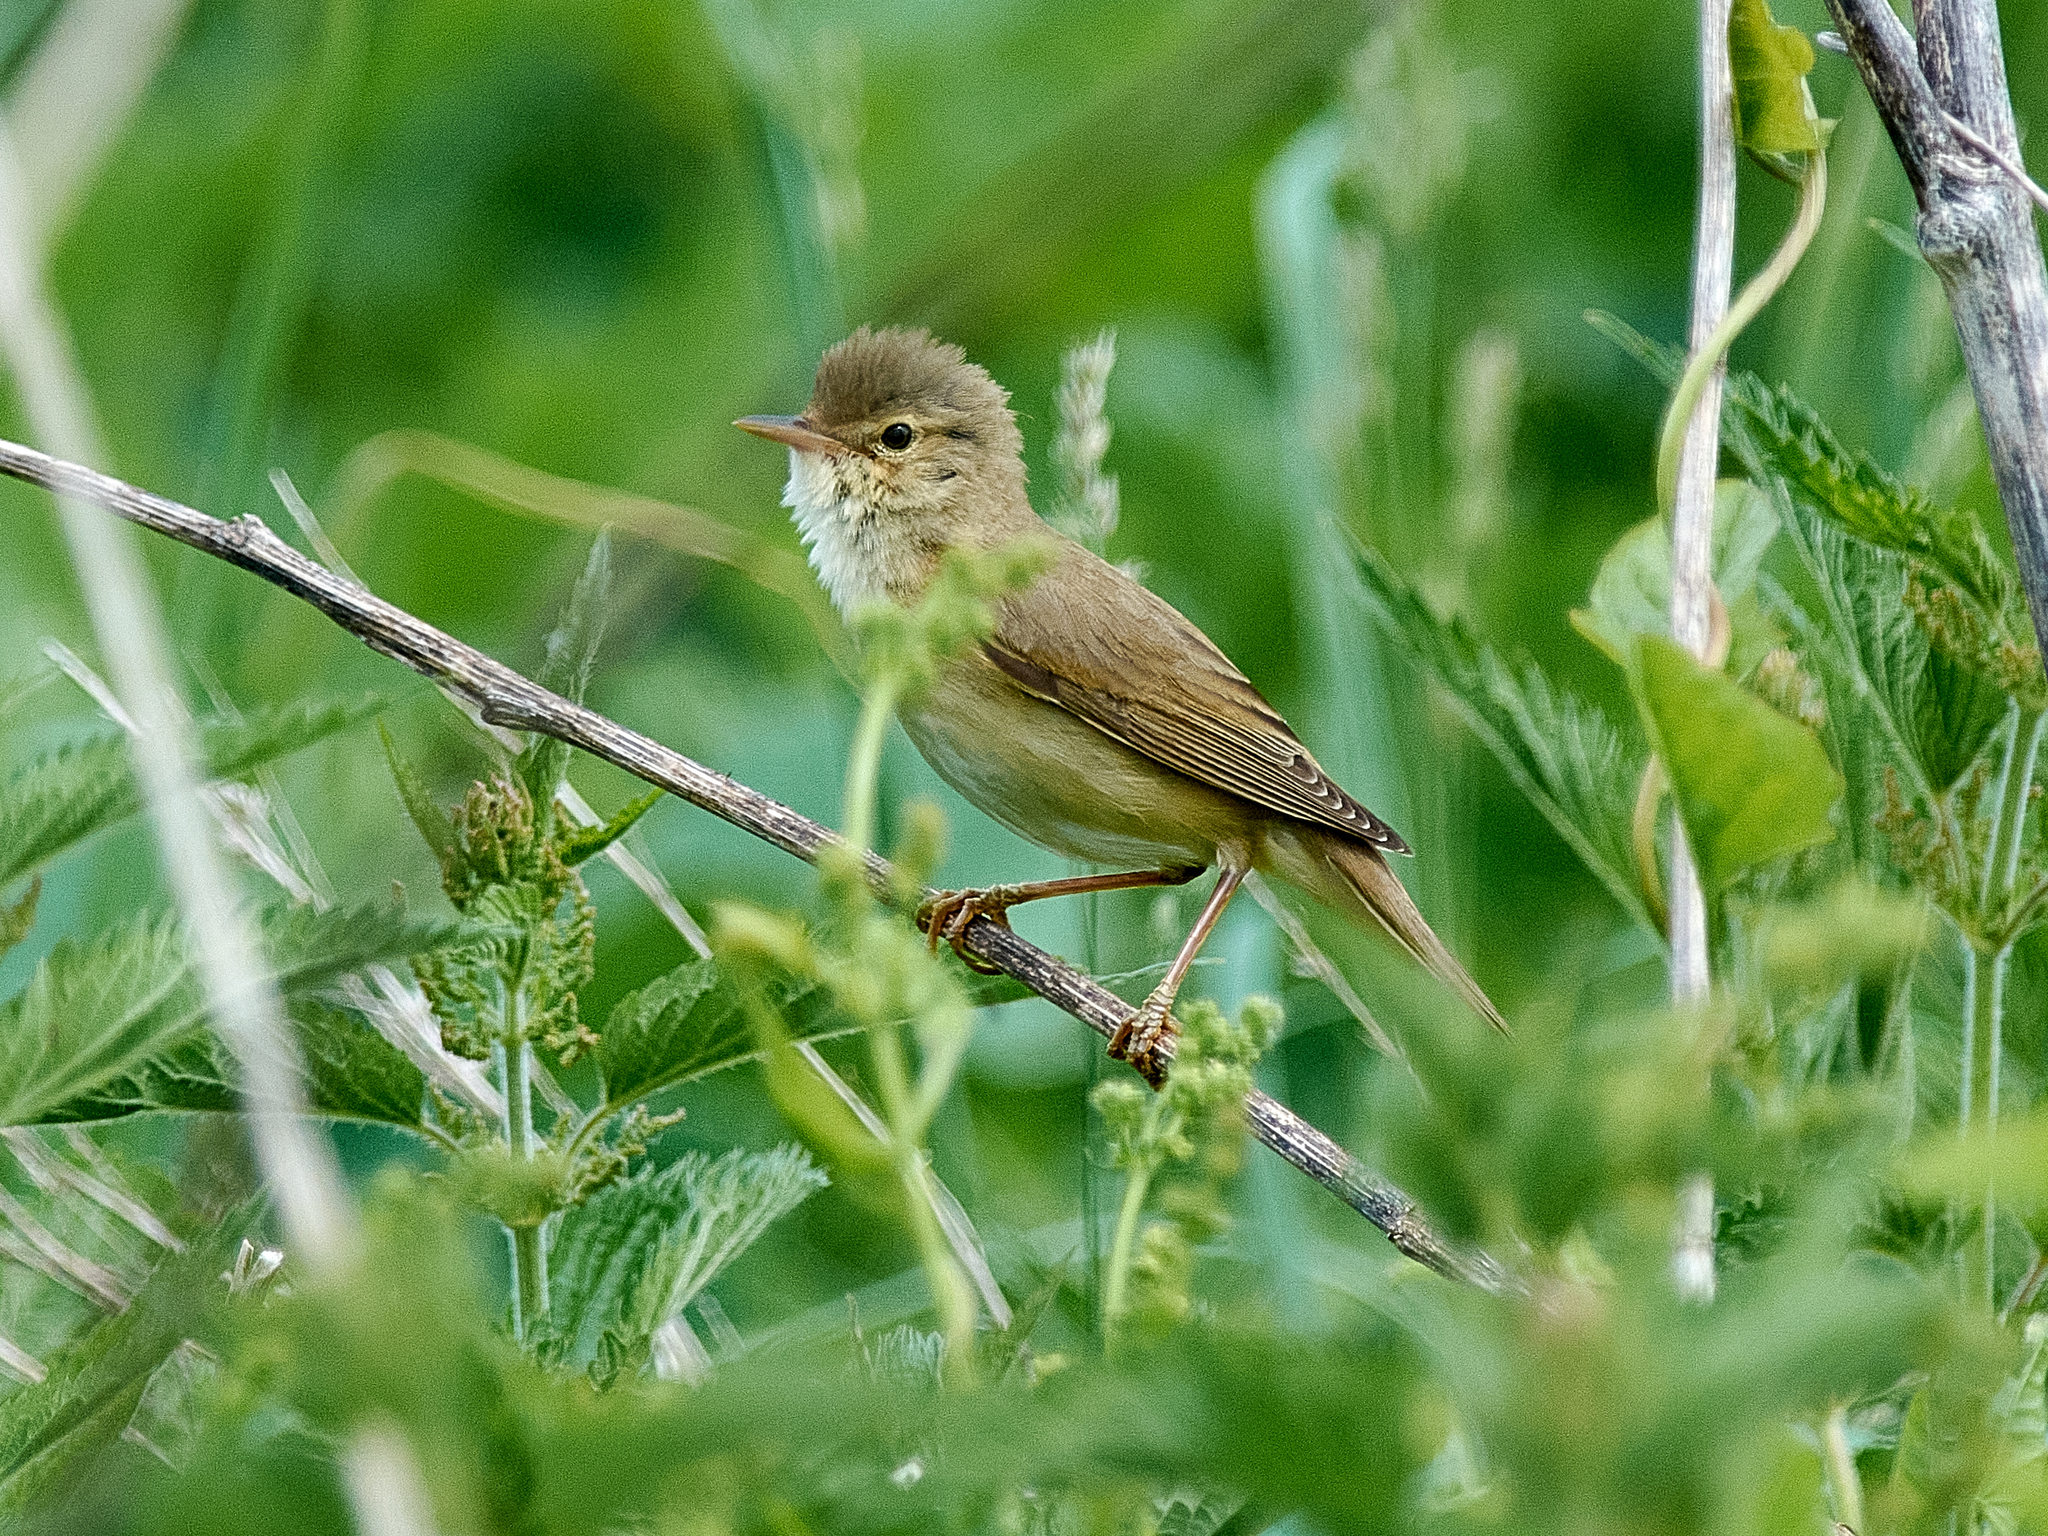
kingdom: Animalia
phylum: Chordata
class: Aves
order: Passeriformes
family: Acrocephalidae
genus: Acrocephalus
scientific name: Acrocephalus palustris
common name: Marsh warbler
